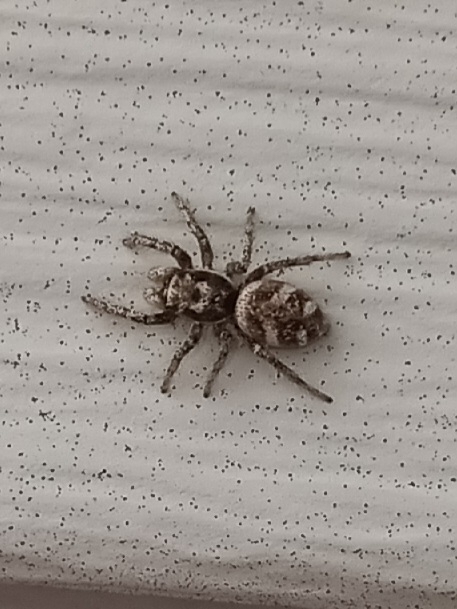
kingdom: Animalia
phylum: Arthropoda
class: Arachnida
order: Araneae
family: Salticidae
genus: Salticus
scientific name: Salticus scenicus
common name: Zebra jumper
